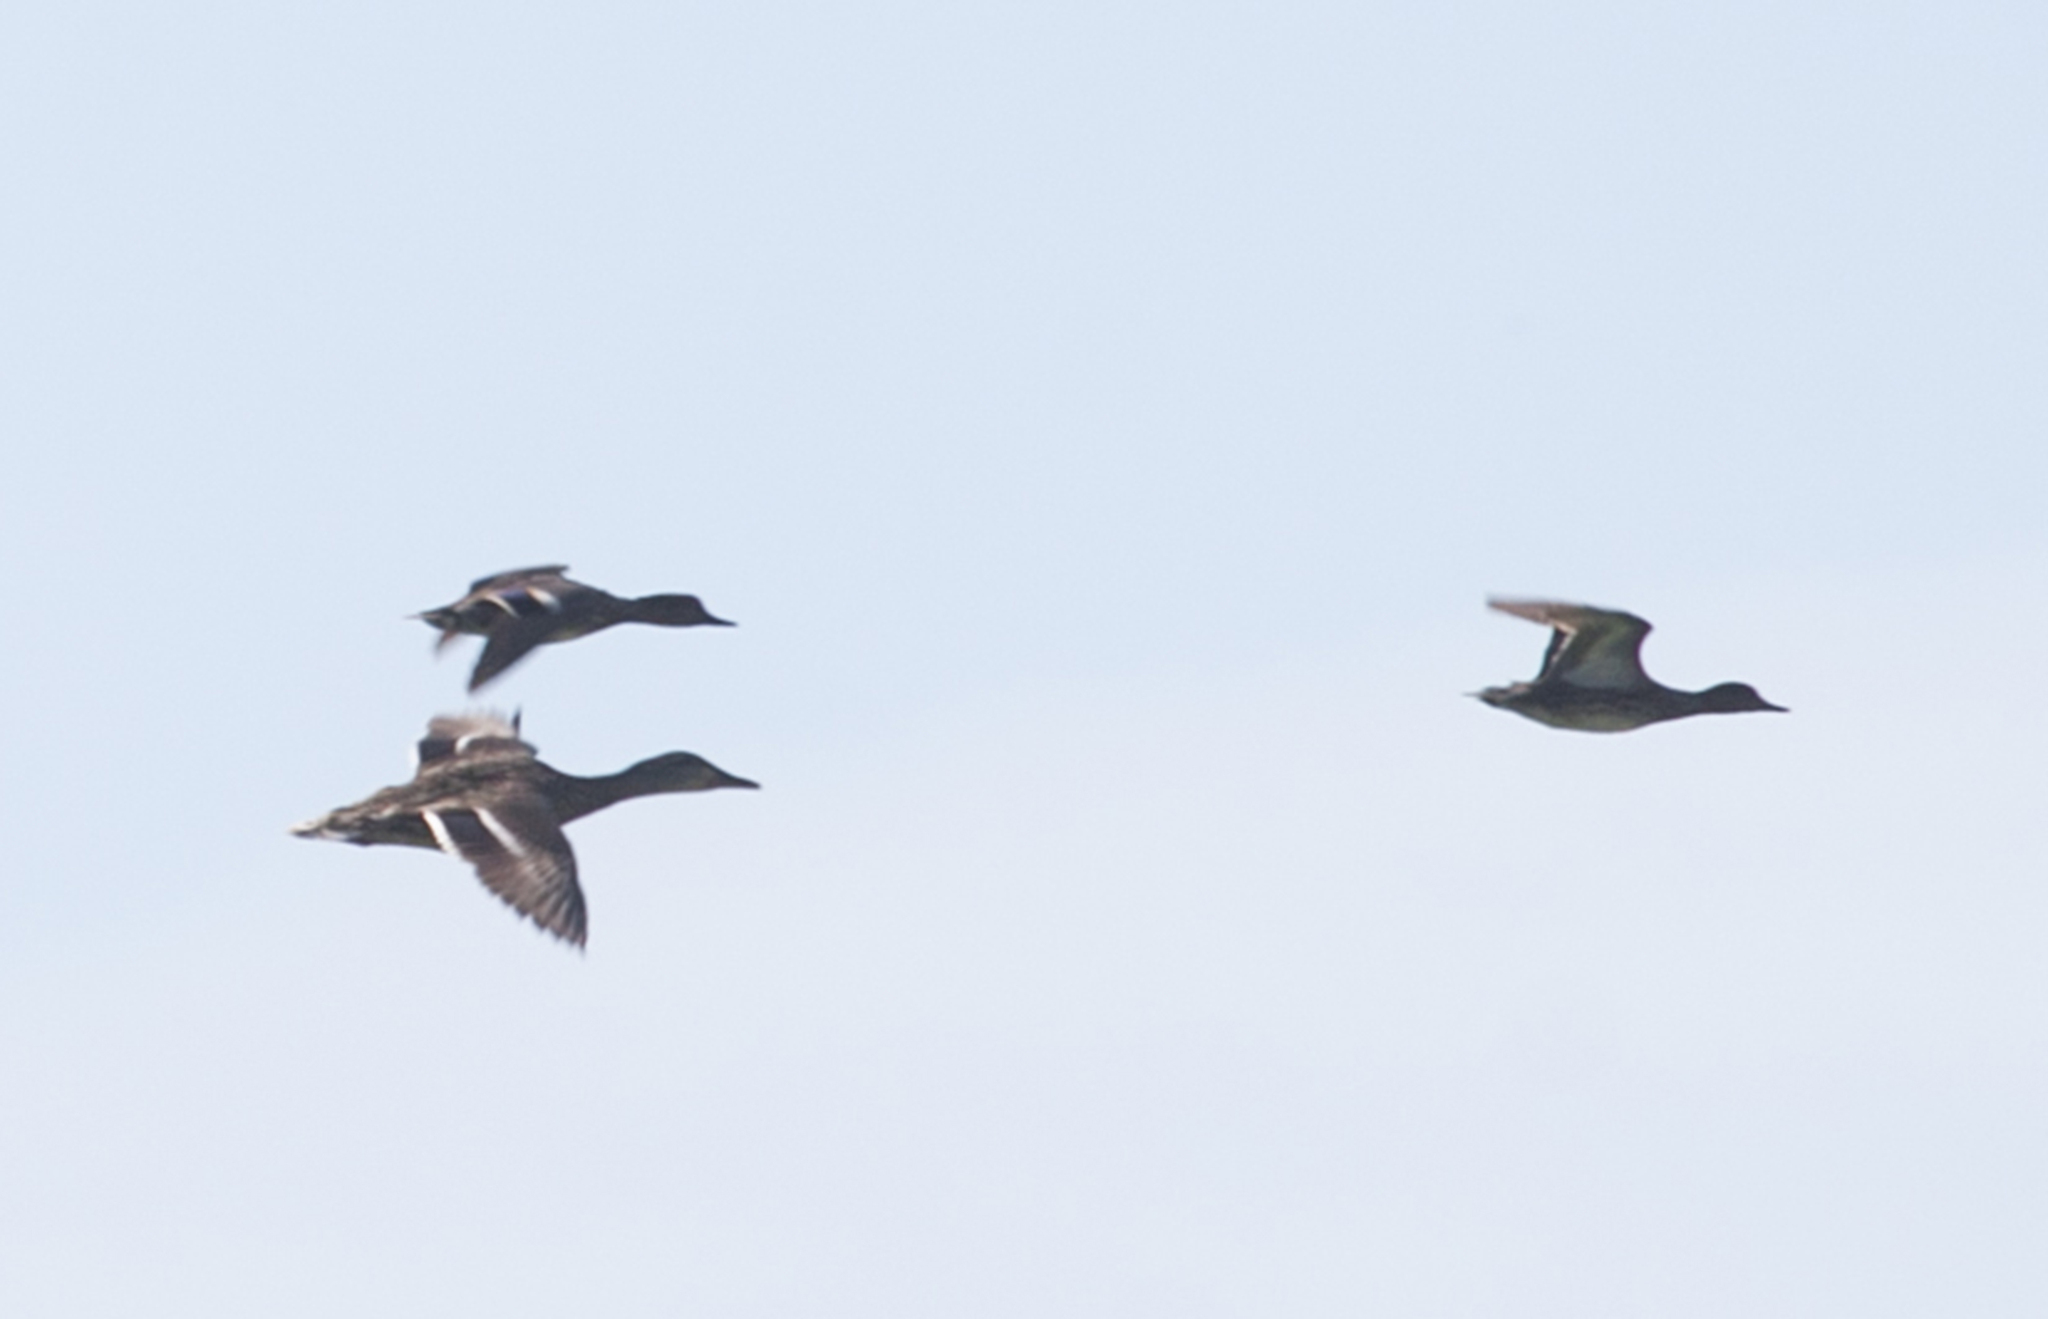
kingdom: Animalia
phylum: Chordata
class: Aves
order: Anseriformes
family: Anatidae
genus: Anas
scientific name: Anas crecca
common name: Eurasian teal
